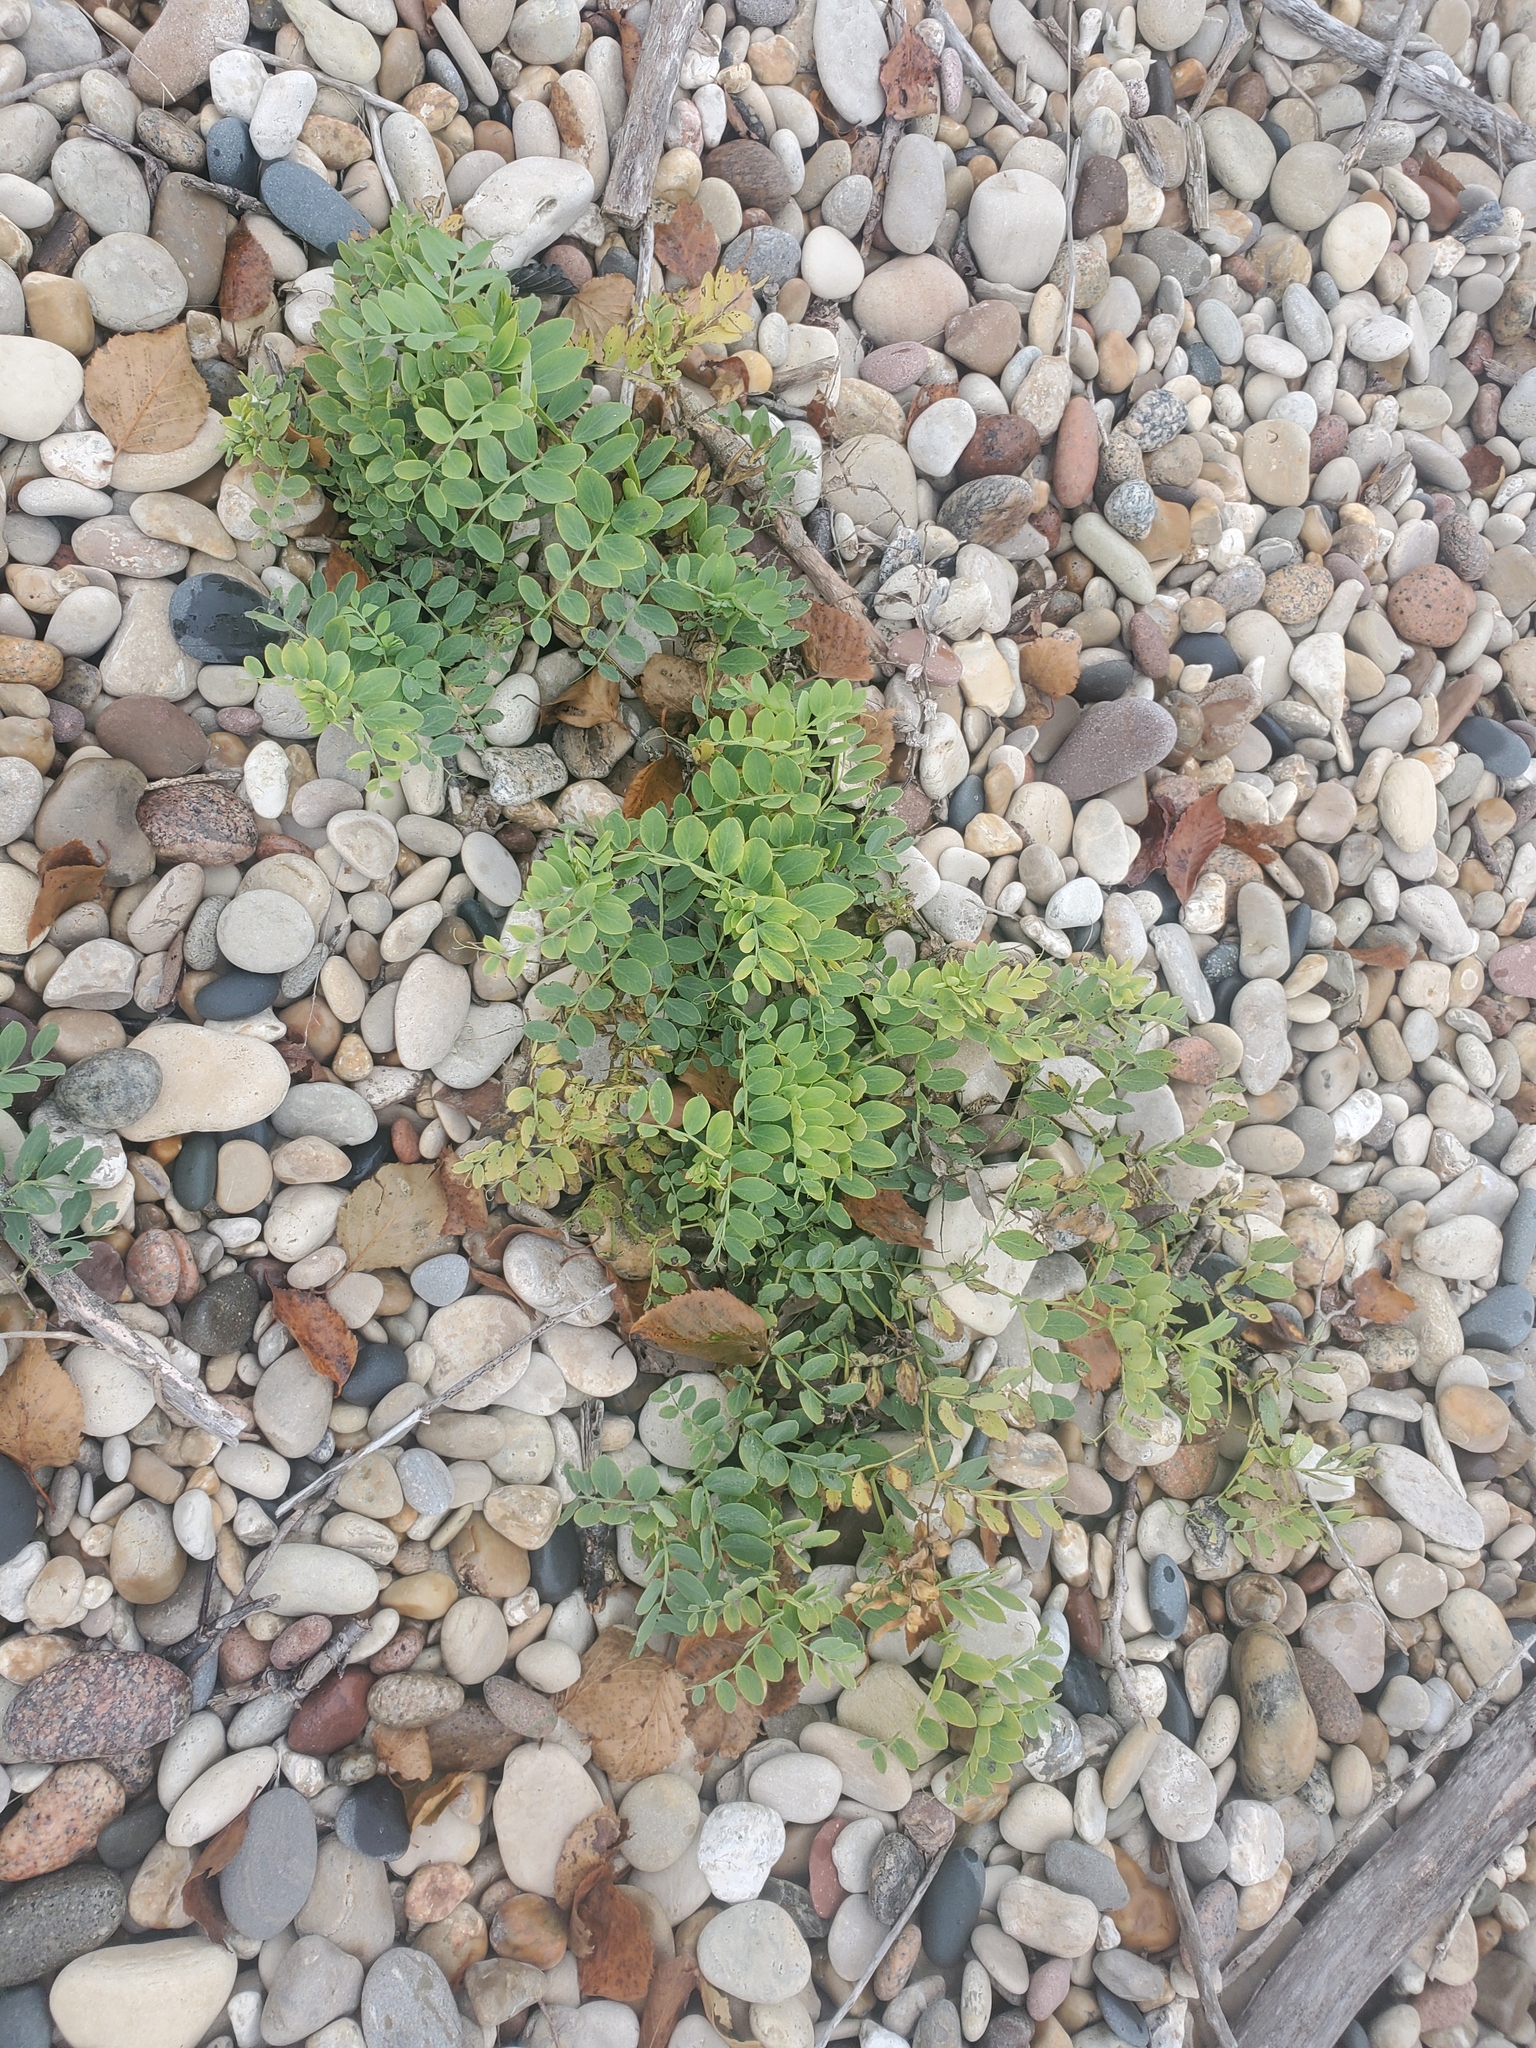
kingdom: Plantae
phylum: Tracheophyta
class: Magnoliopsida
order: Fabales
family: Fabaceae
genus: Lathyrus
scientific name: Lathyrus japonicus
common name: Sea pea
